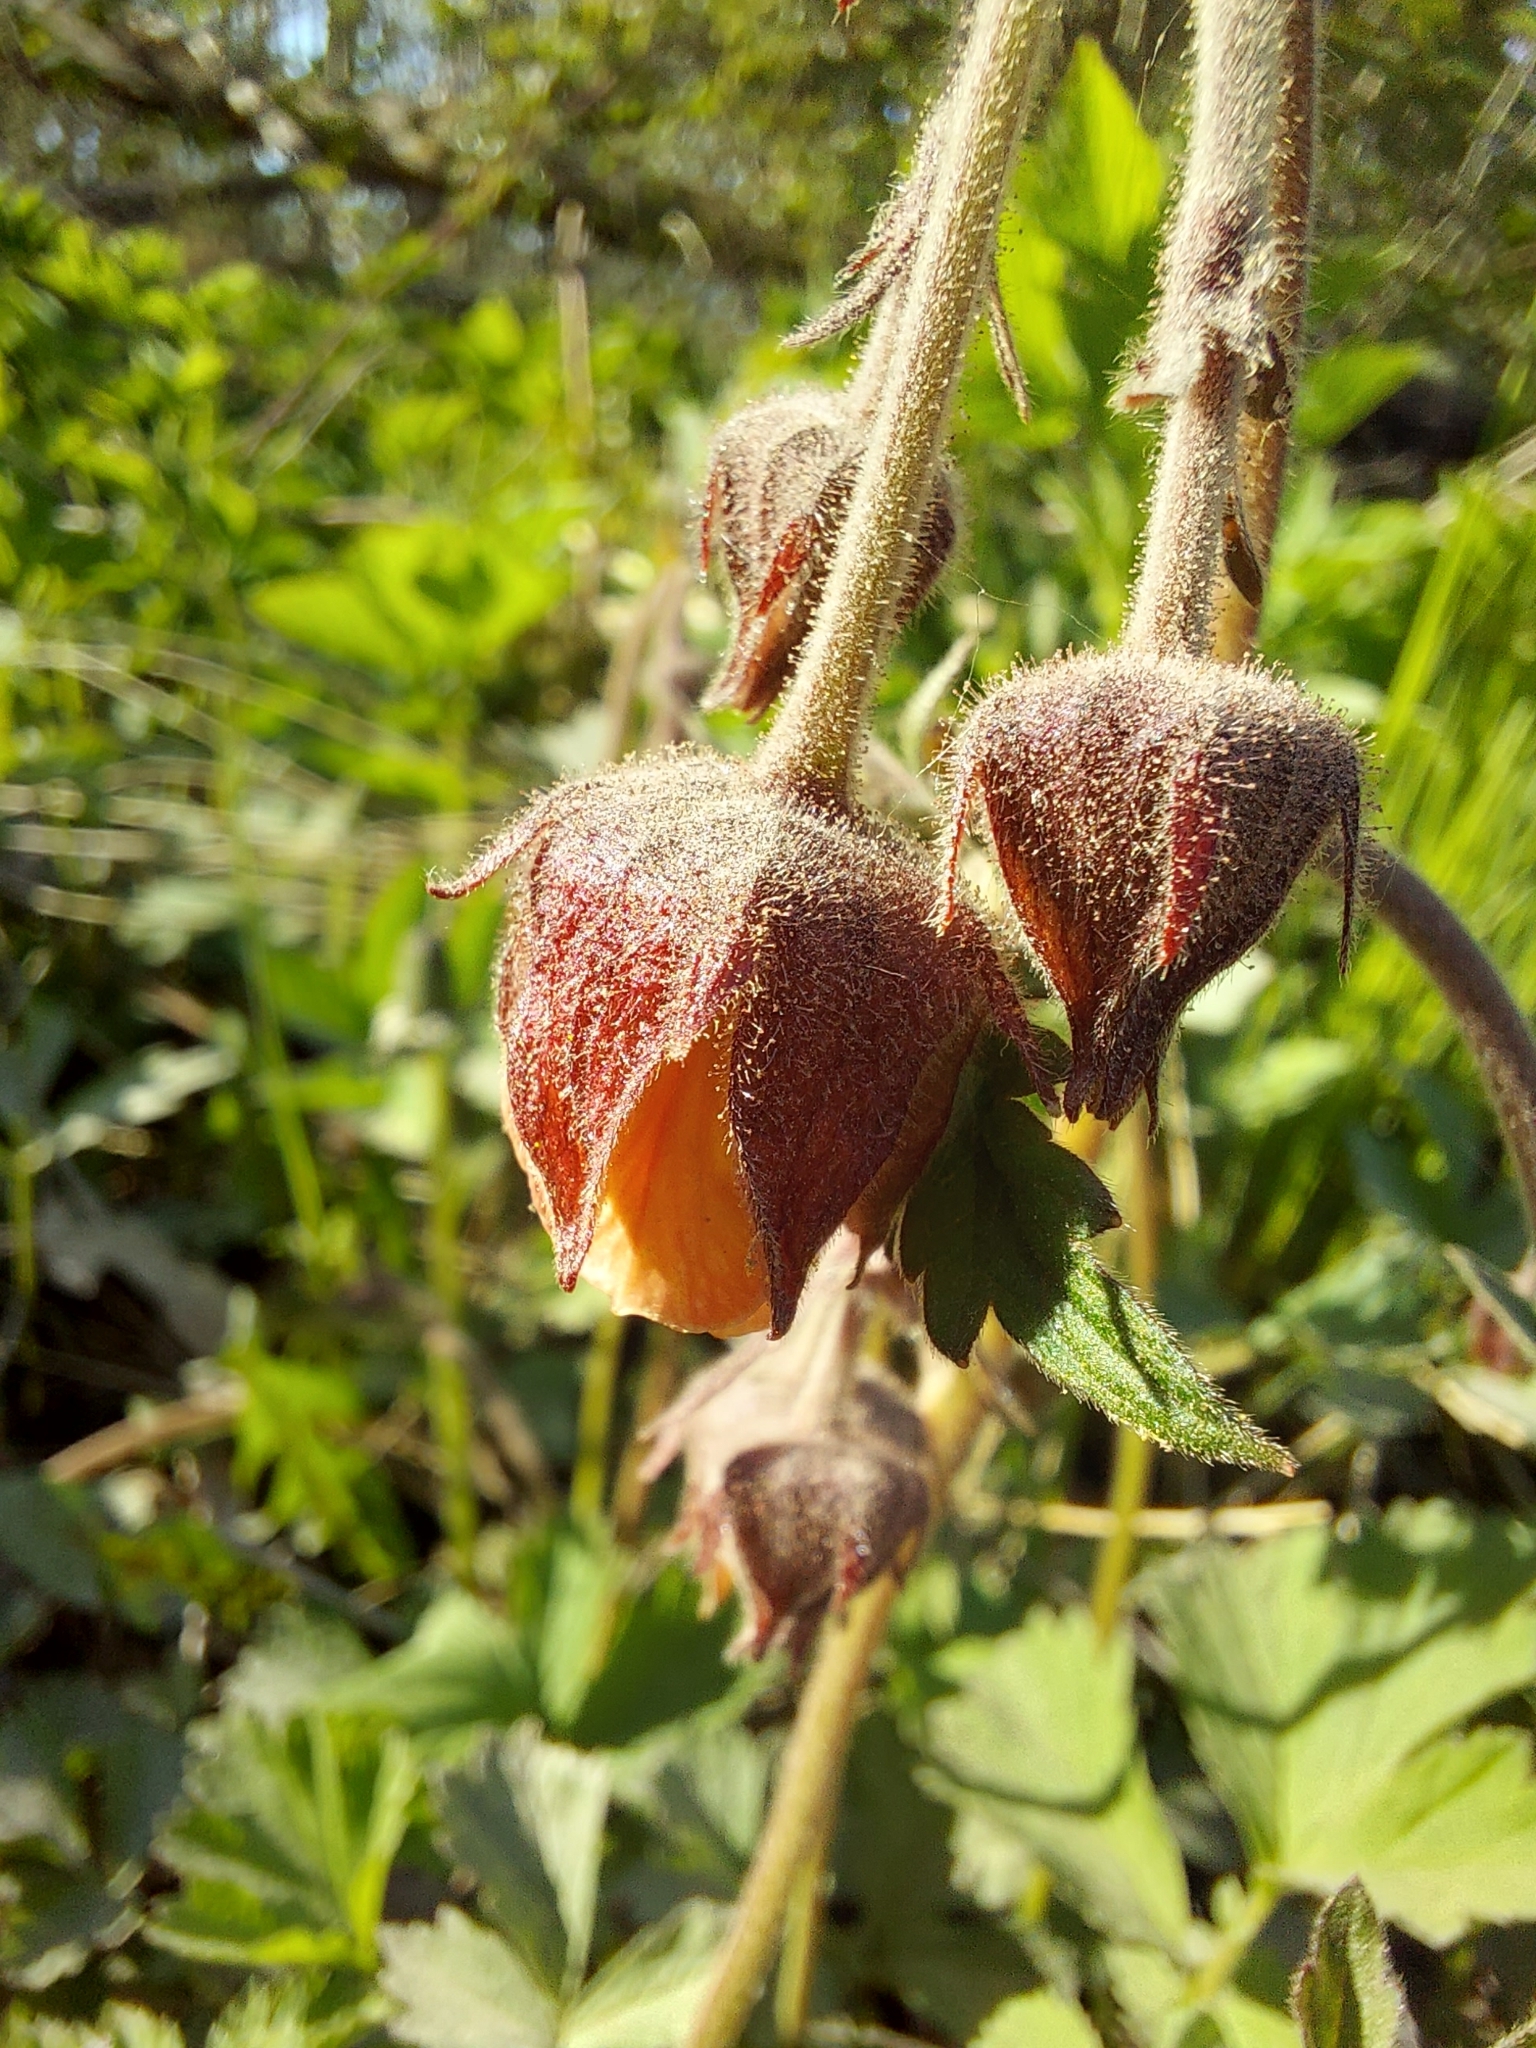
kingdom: Plantae
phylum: Tracheophyta
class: Magnoliopsida
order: Rosales
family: Rosaceae
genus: Geum
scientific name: Geum rivale
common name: Water avens
